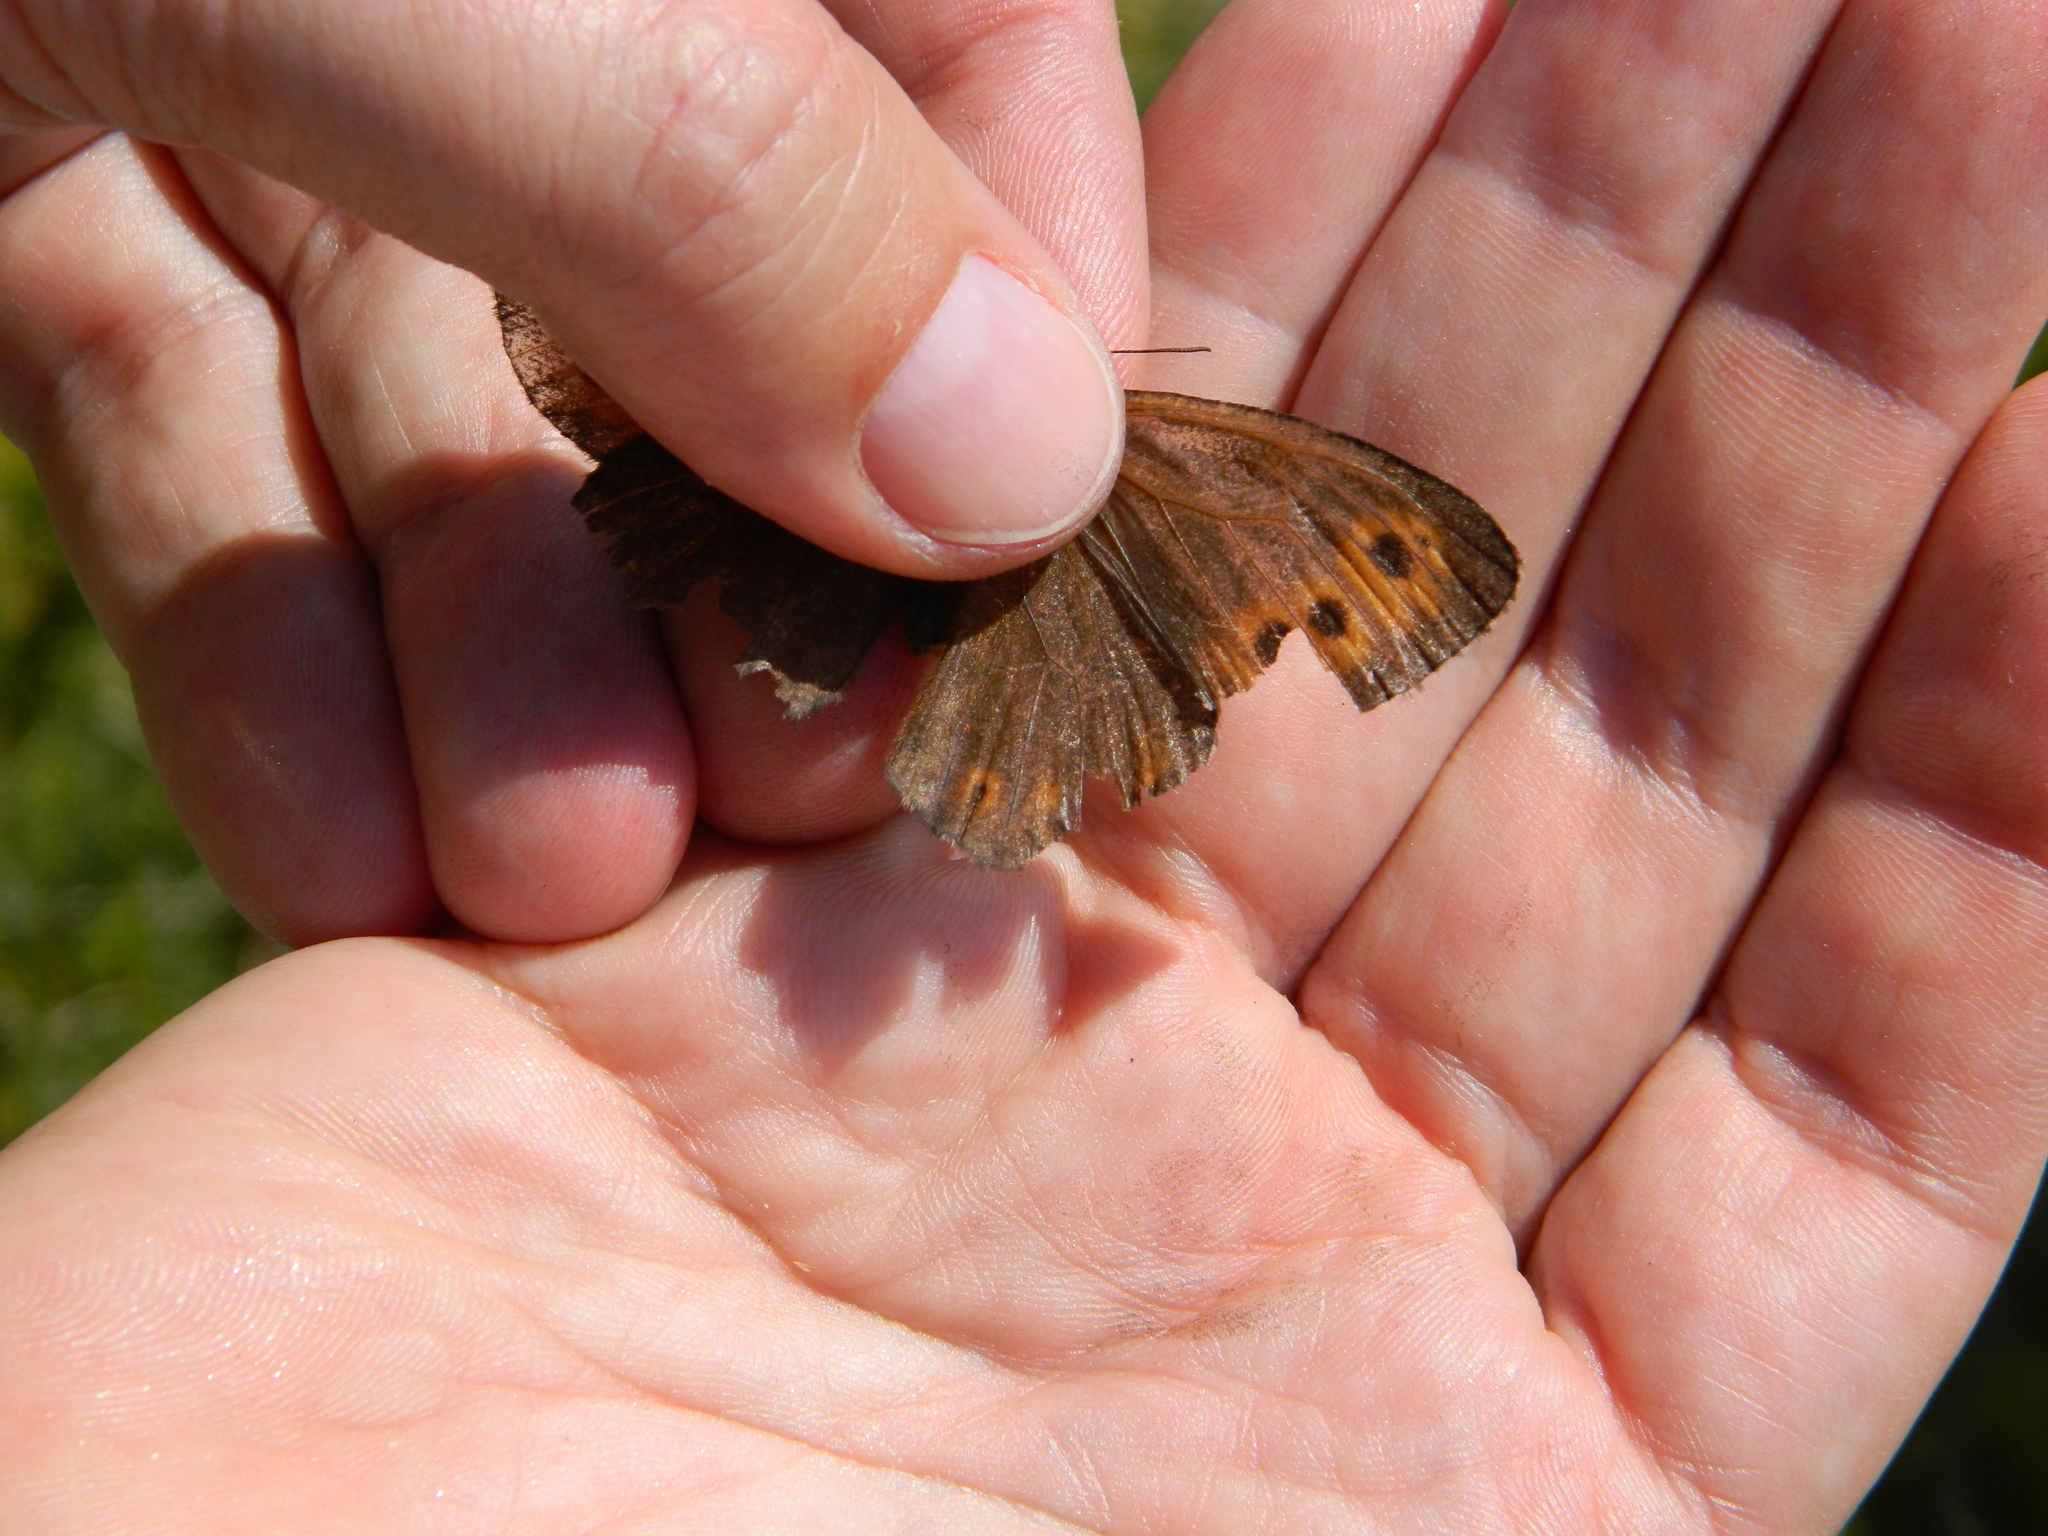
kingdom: Animalia
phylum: Arthropoda
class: Insecta
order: Lepidoptera
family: Nymphalidae
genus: Erebia
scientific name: Erebia disa
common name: Arctic ringlet
